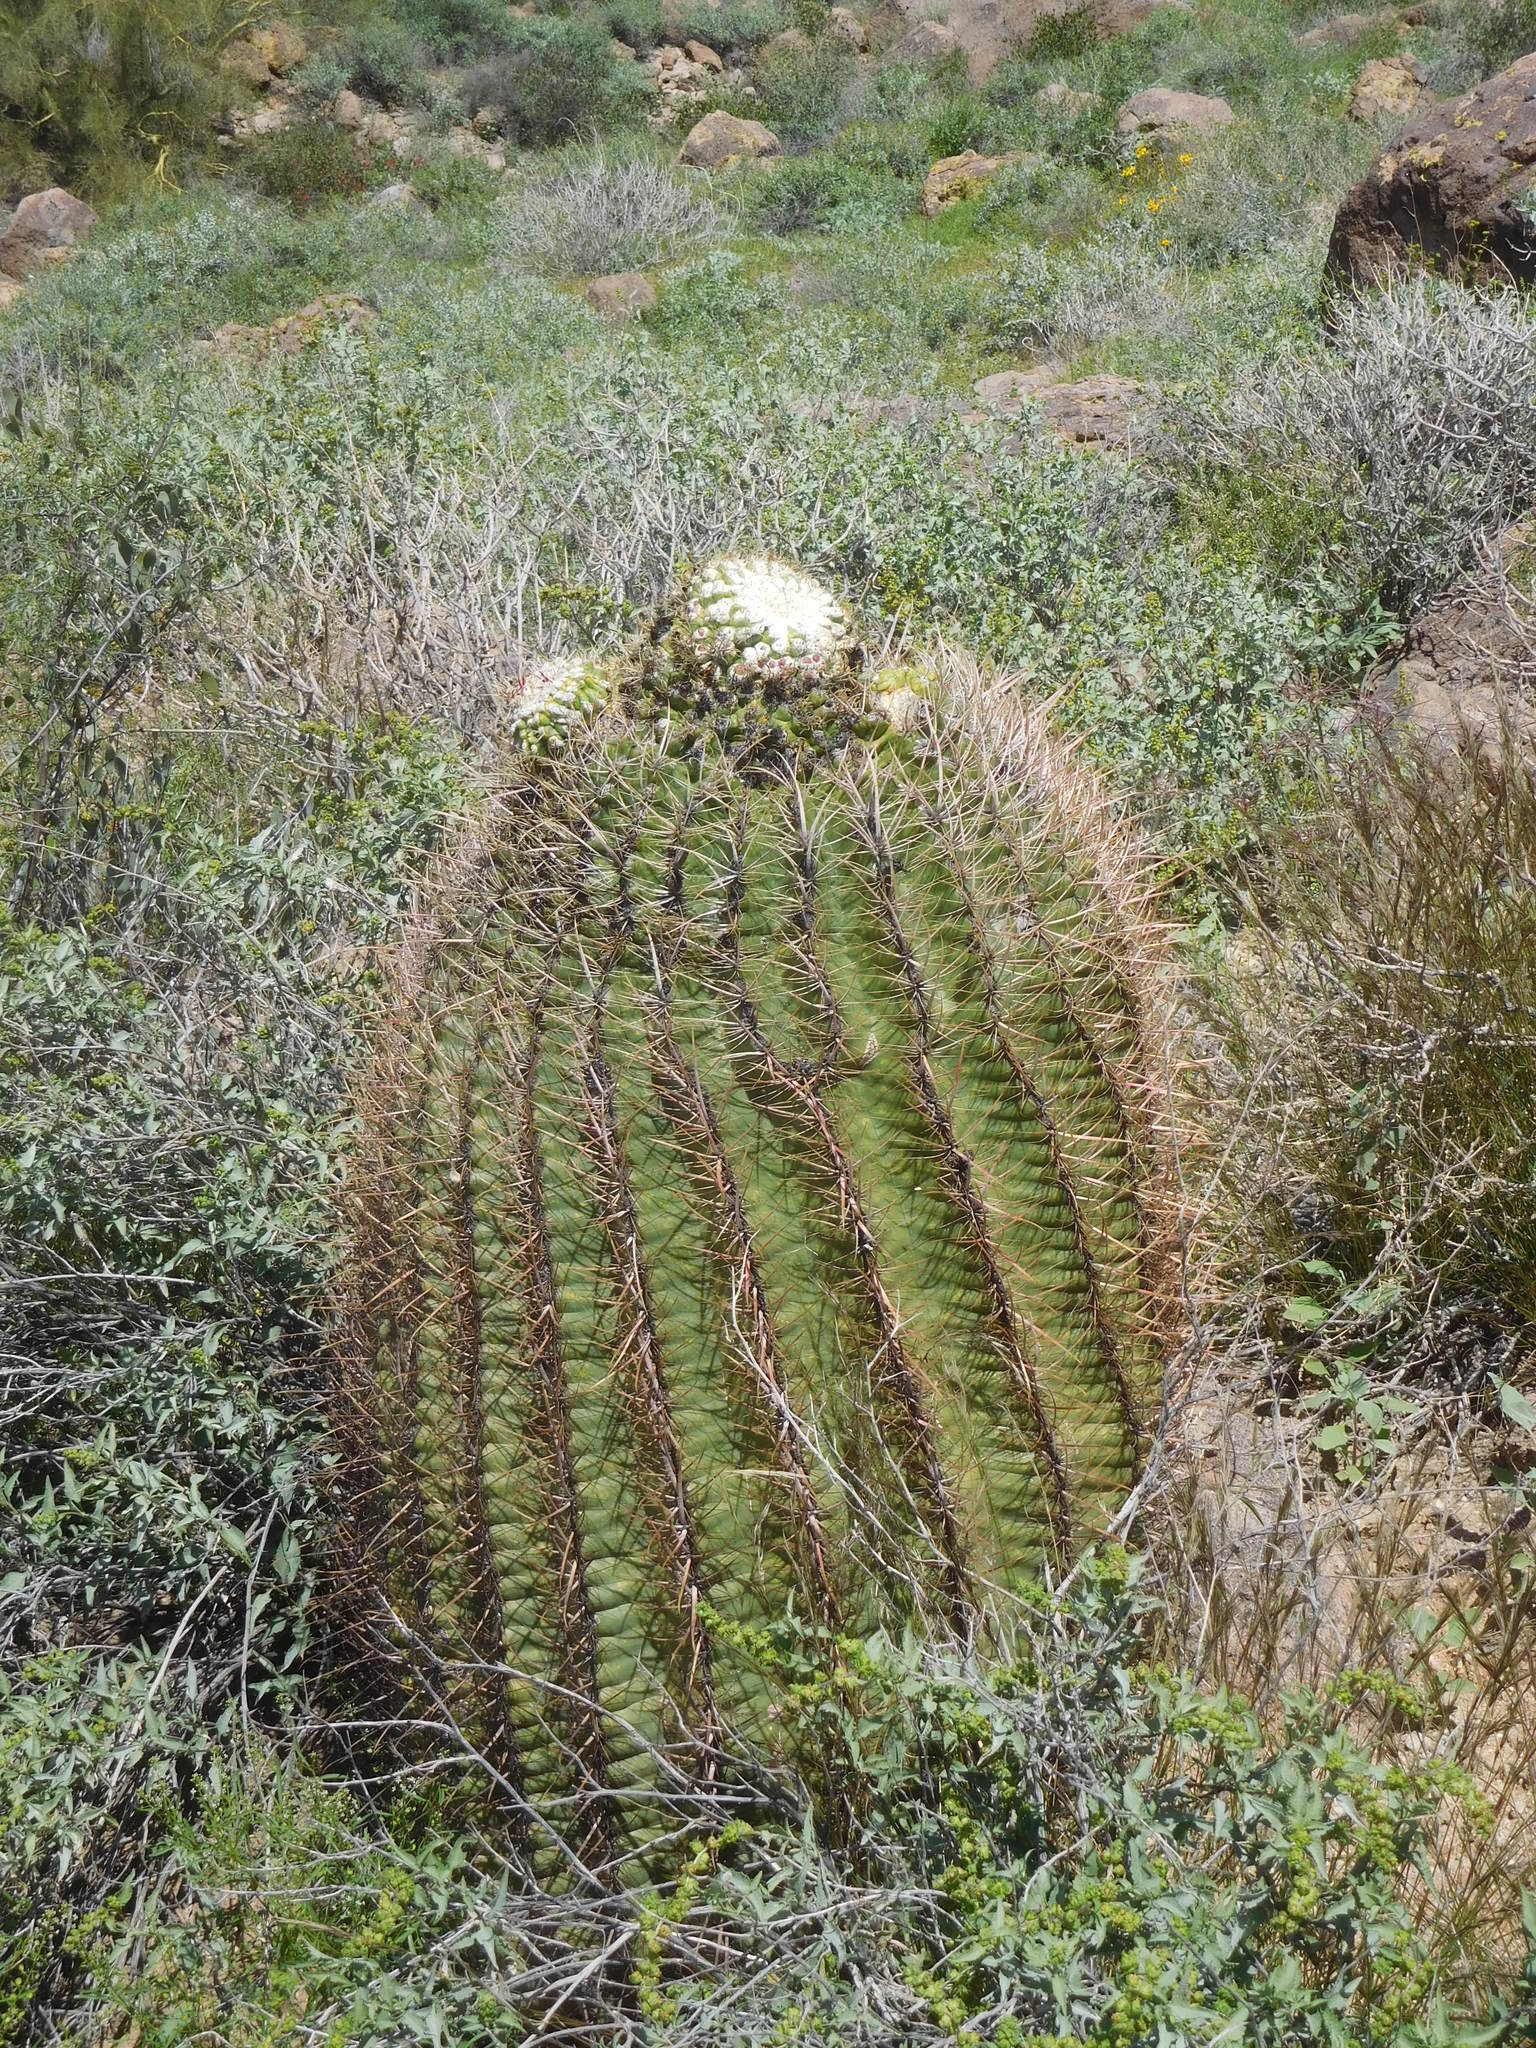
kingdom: Plantae
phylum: Tracheophyta
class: Magnoliopsida
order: Caryophyllales
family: Cactaceae
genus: Ferocactus
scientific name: Ferocactus wislizeni
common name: Candy barrel cactus
